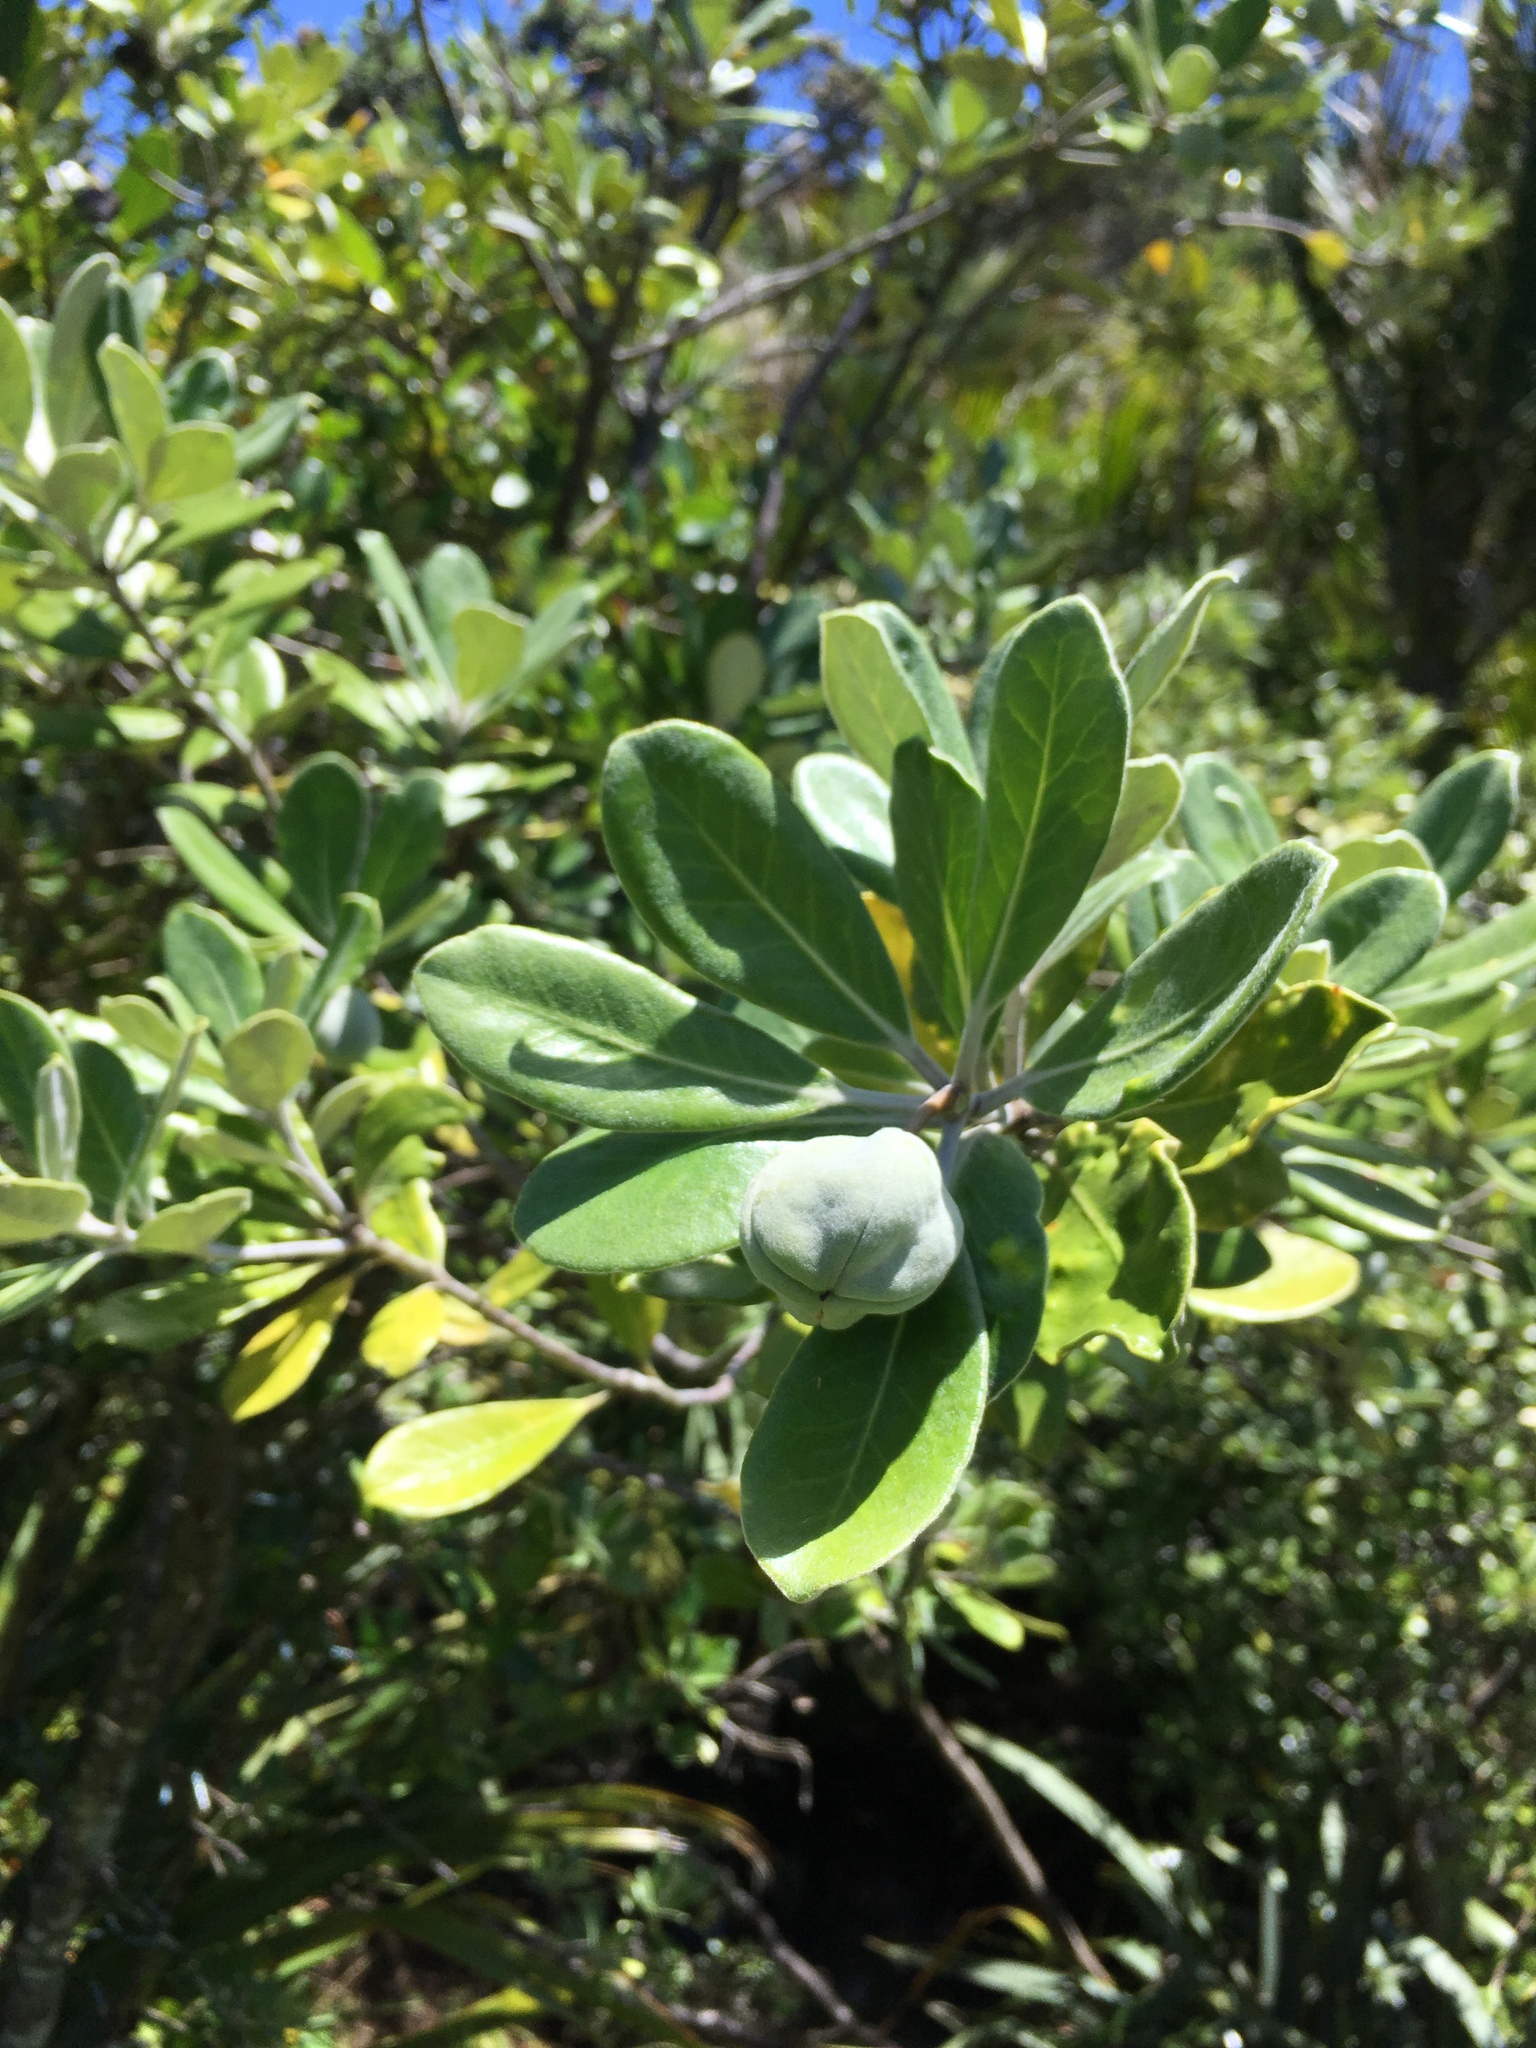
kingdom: Plantae
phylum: Tracheophyta
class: Magnoliopsida
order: Apiales
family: Pittosporaceae
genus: Pittosporum
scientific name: Pittosporum crassifolium
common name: Karo
